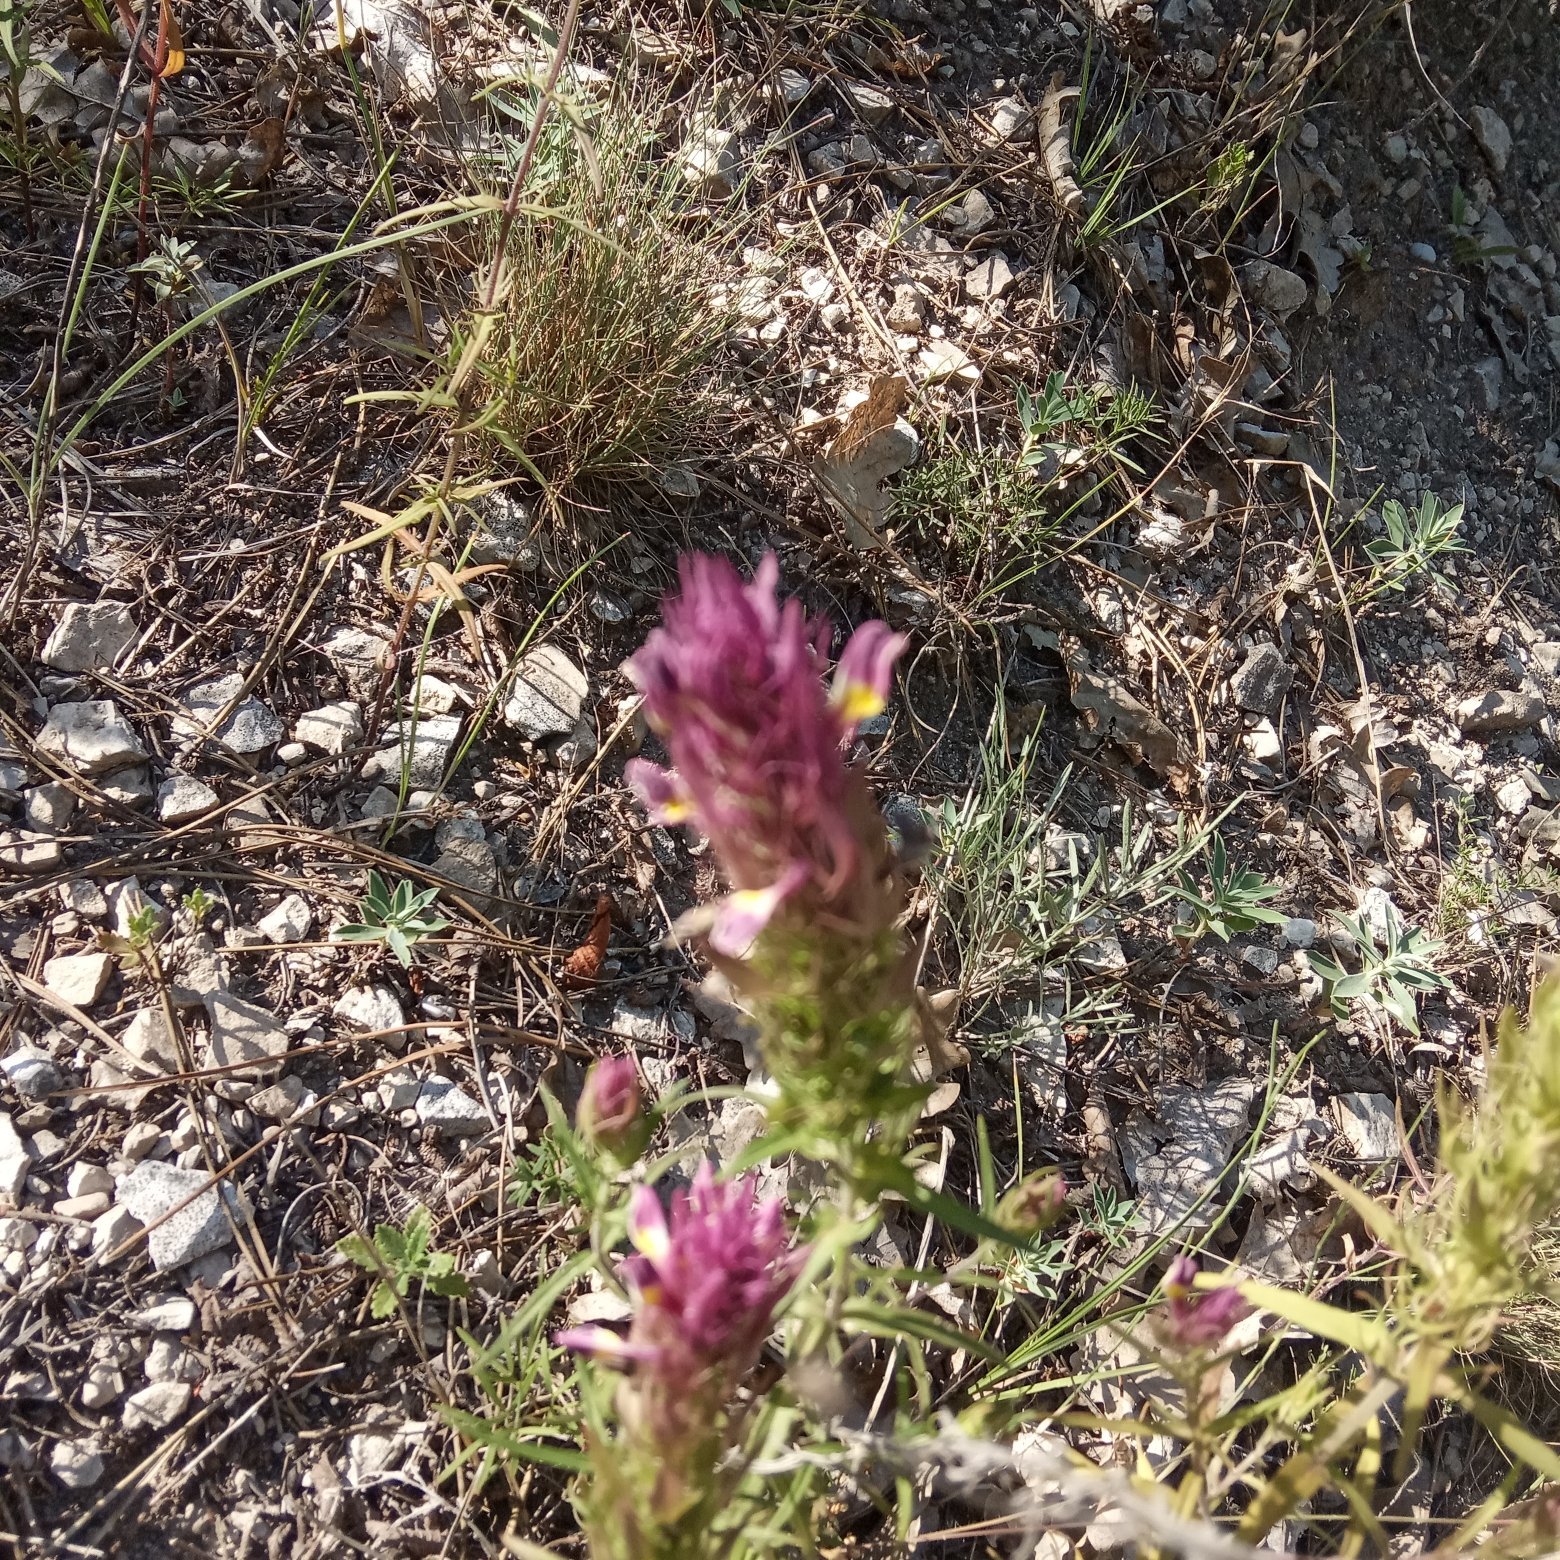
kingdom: Plantae
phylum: Tracheophyta
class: Magnoliopsida
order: Lamiales
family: Orobanchaceae
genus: Melampyrum
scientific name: Melampyrum arvense
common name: Field cow-wheat
